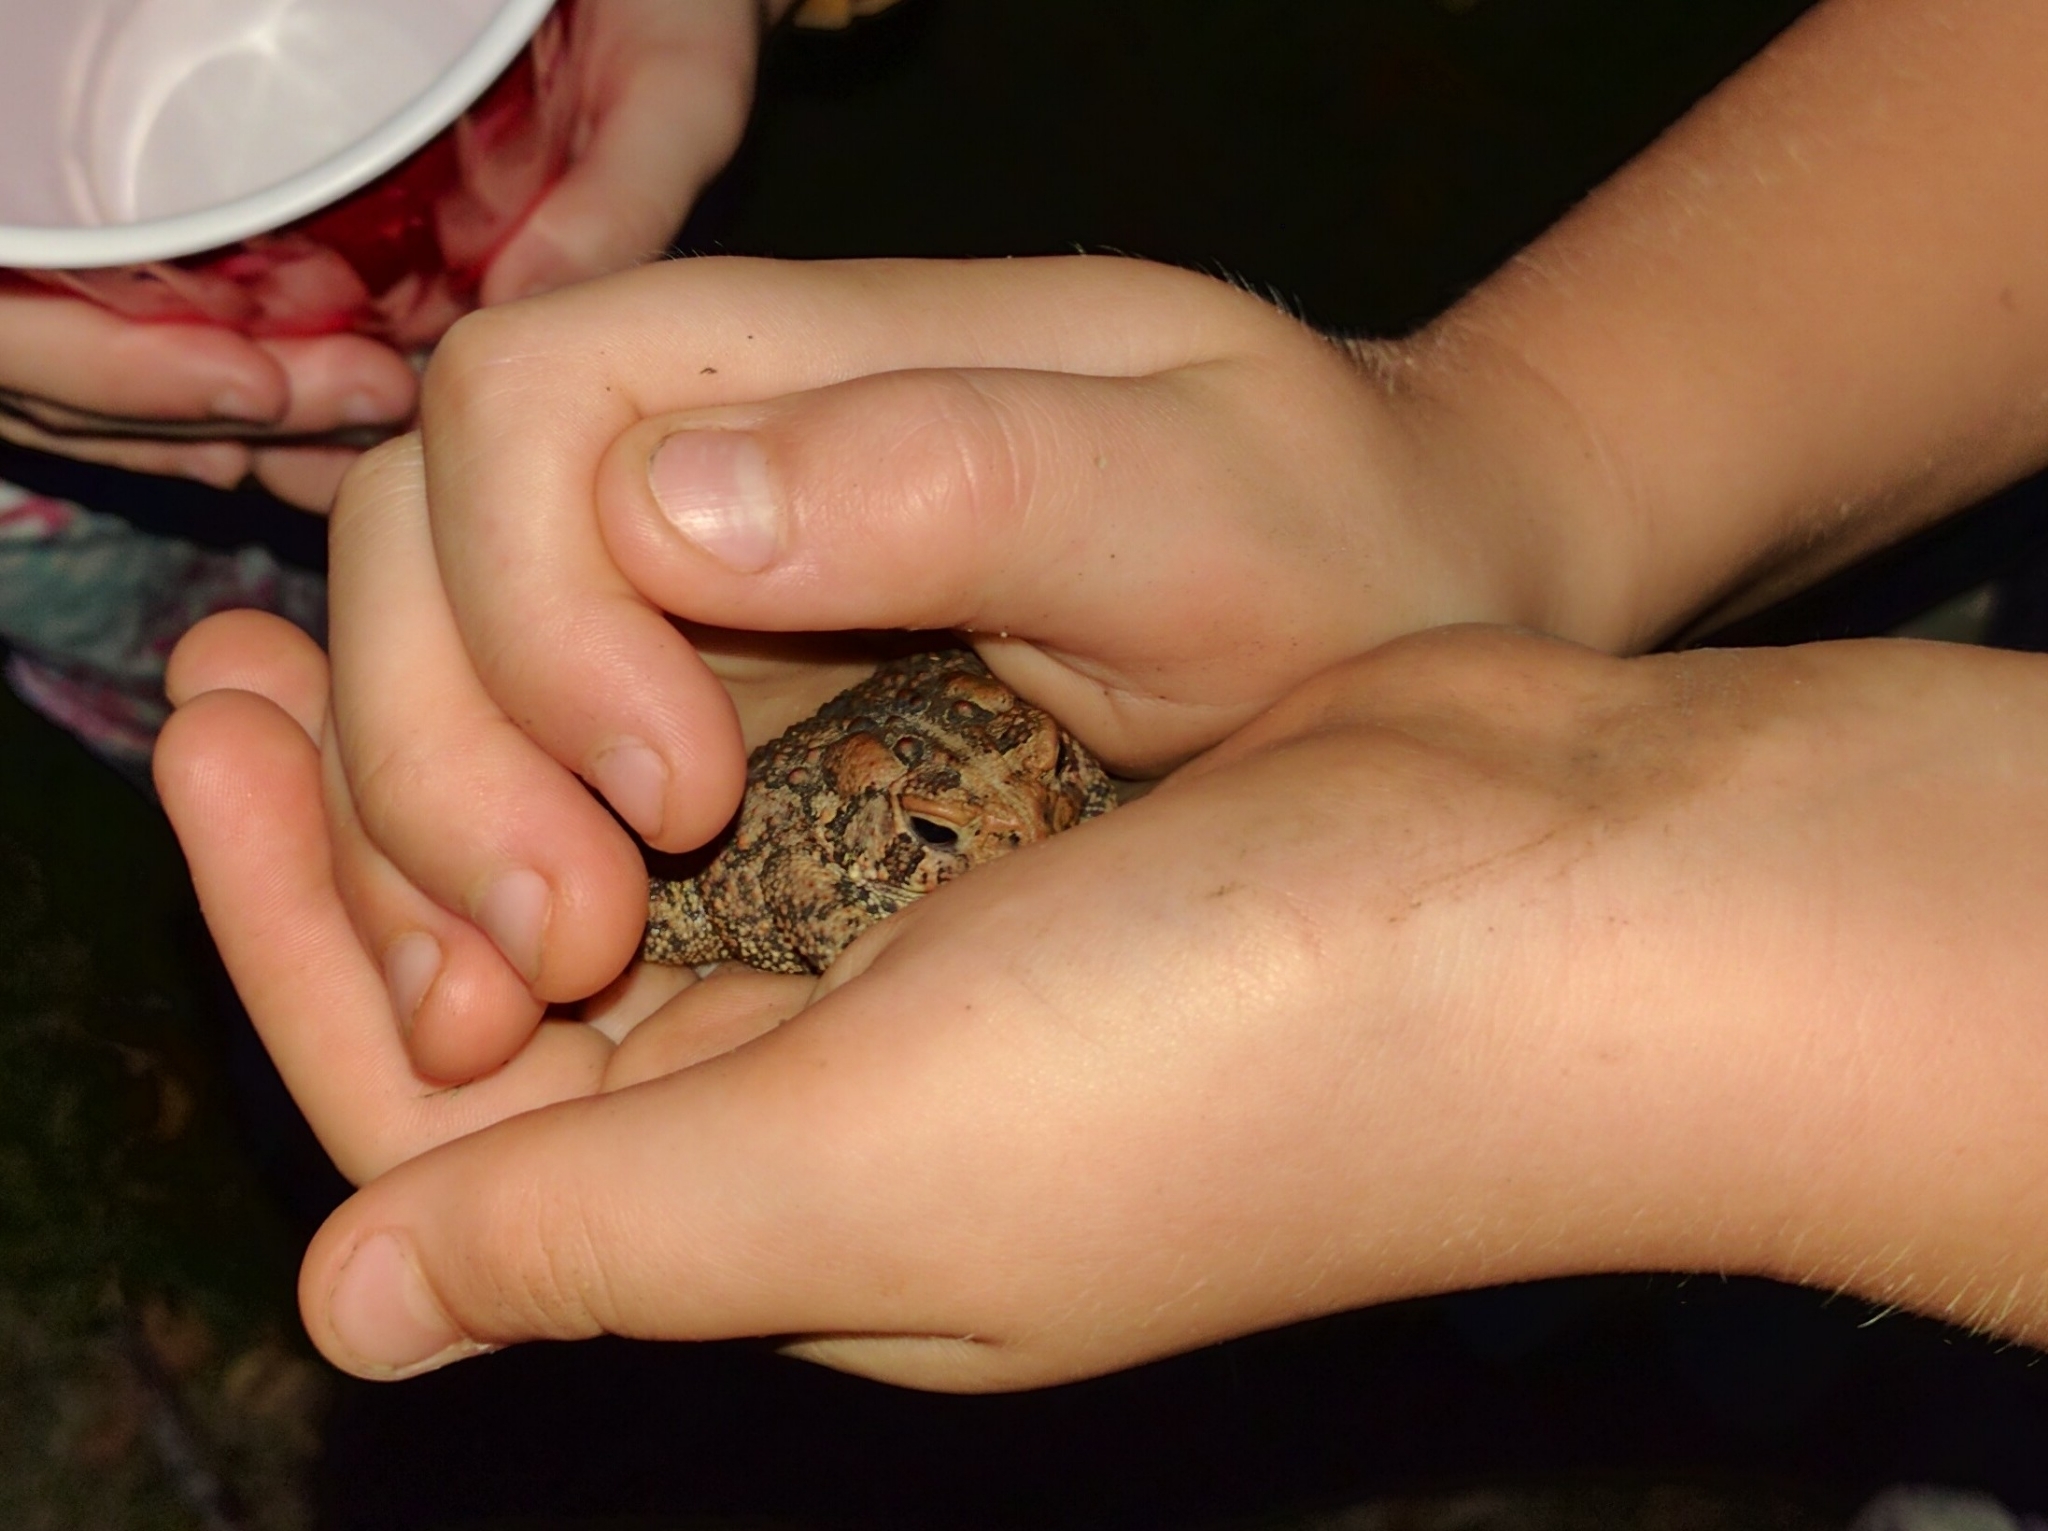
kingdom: Animalia
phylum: Chordata
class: Amphibia
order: Anura
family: Bufonidae
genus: Anaxyrus
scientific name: Anaxyrus americanus
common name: American toad
